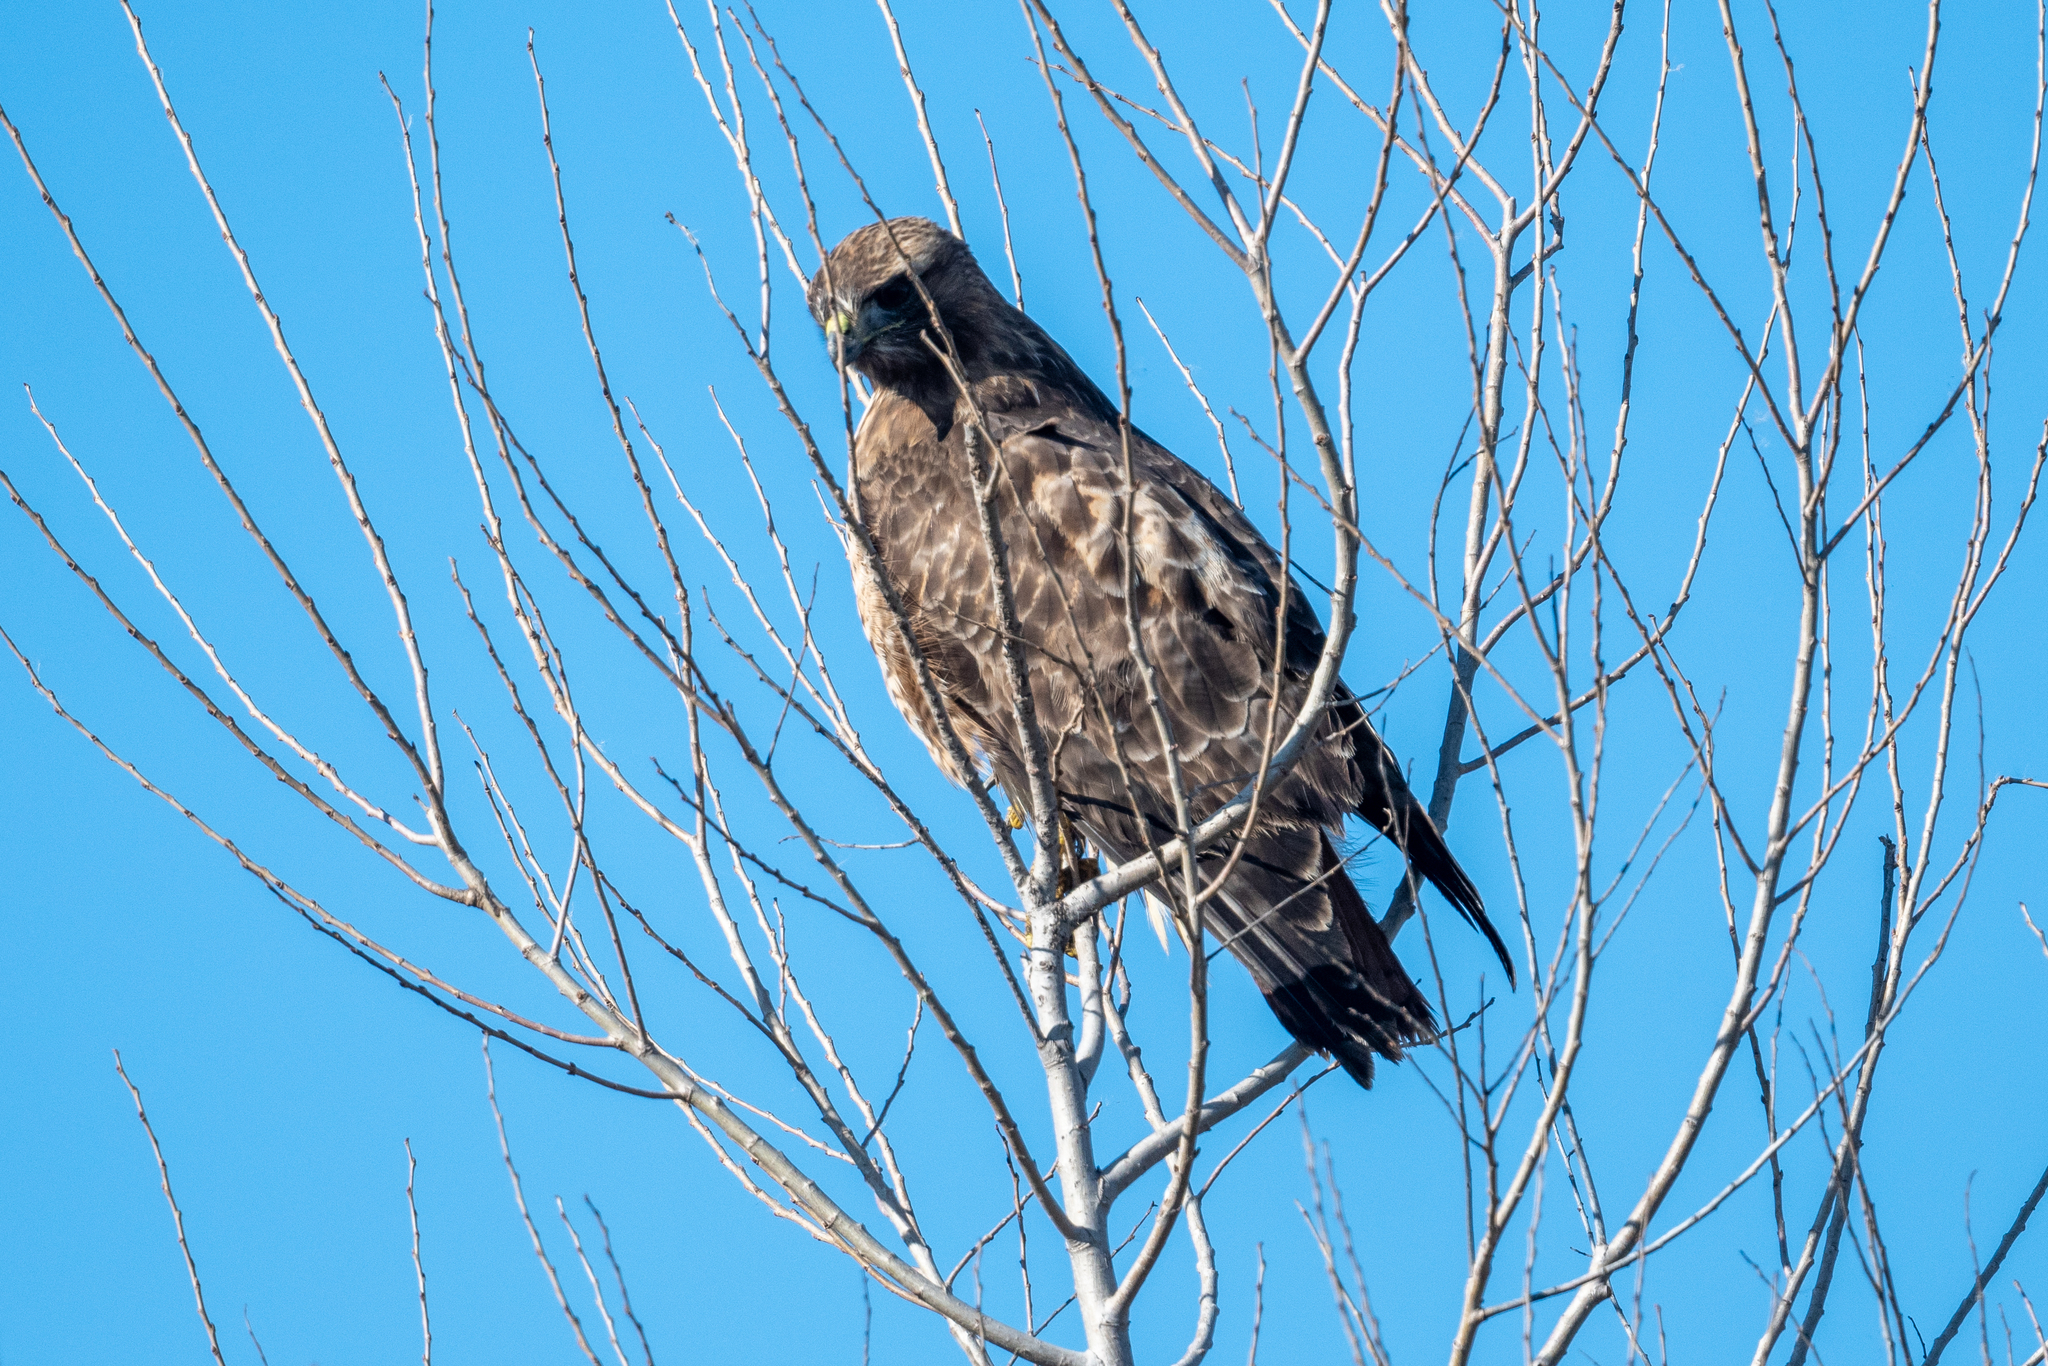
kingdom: Animalia
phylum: Chordata
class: Aves
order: Accipitriformes
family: Accipitridae
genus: Buteo
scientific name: Buteo jamaicensis
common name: Red-tailed hawk
